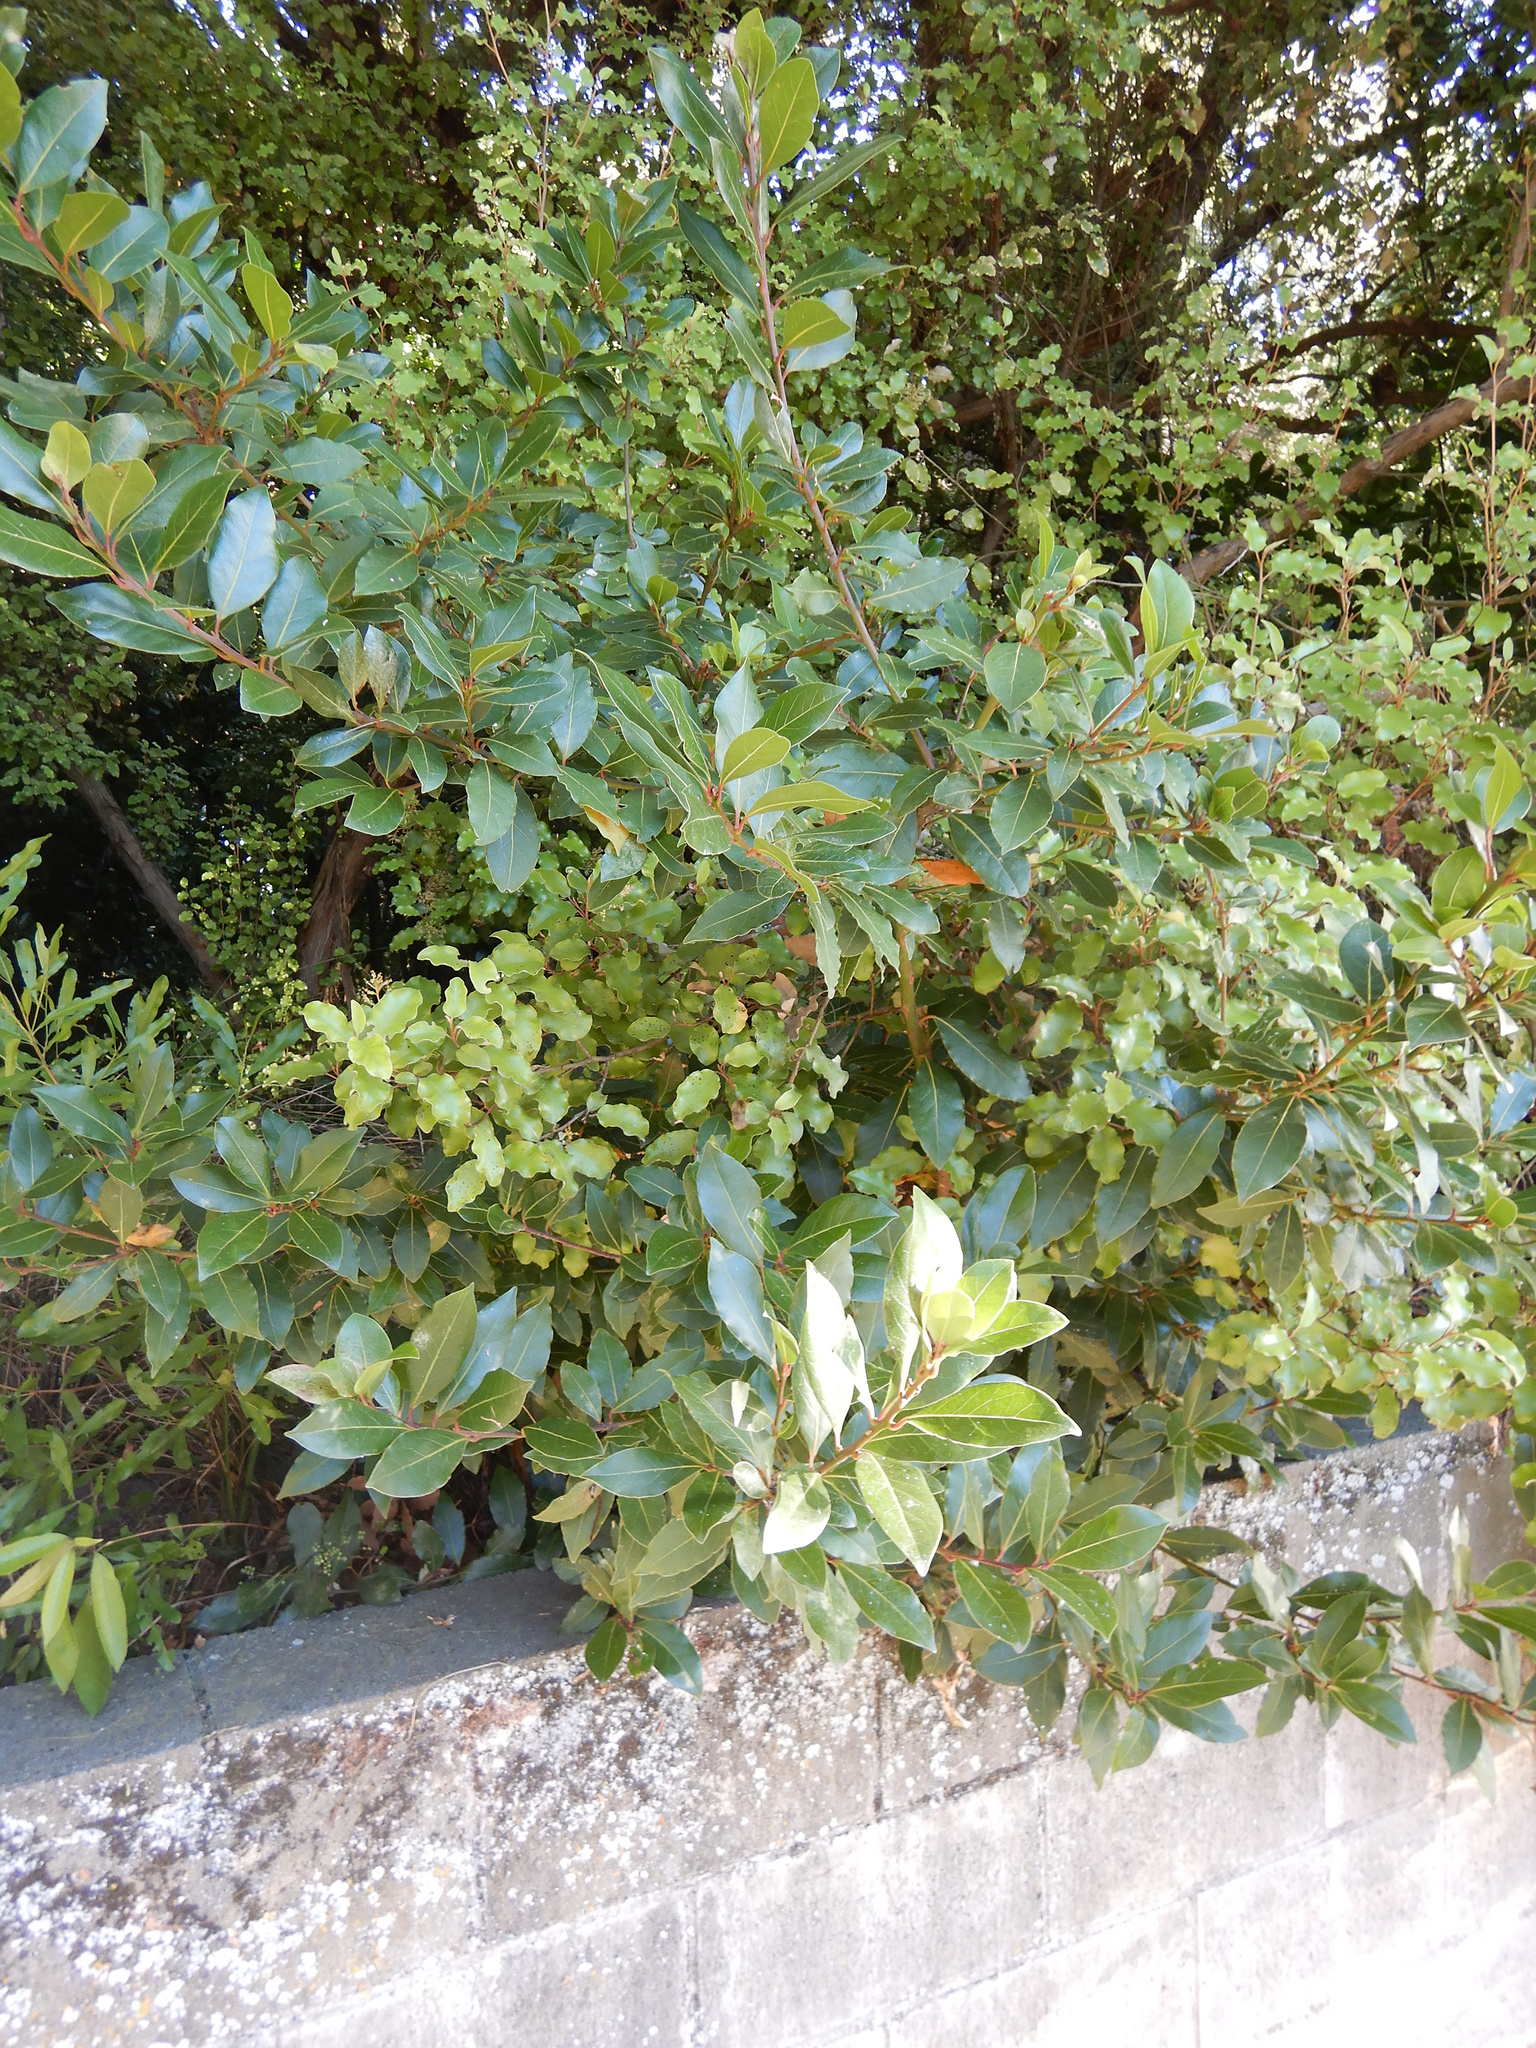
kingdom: Plantae
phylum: Tracheophyta
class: Magnoliopsida
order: Laurales
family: Lauraceae
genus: Laurus
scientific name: Laurus nobilis
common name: Bay
